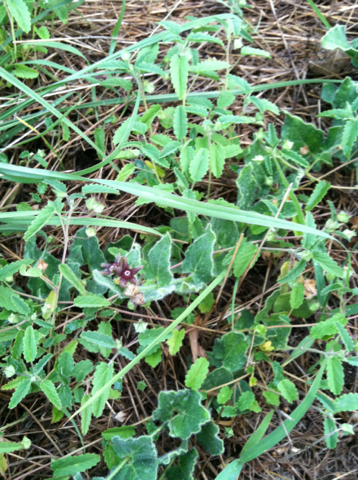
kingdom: Plantae
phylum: Tracheophyta
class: Magnoliopsida
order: Gentianales
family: Apocynaceae
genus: Chthamalia
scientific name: Chthamalia biflora
